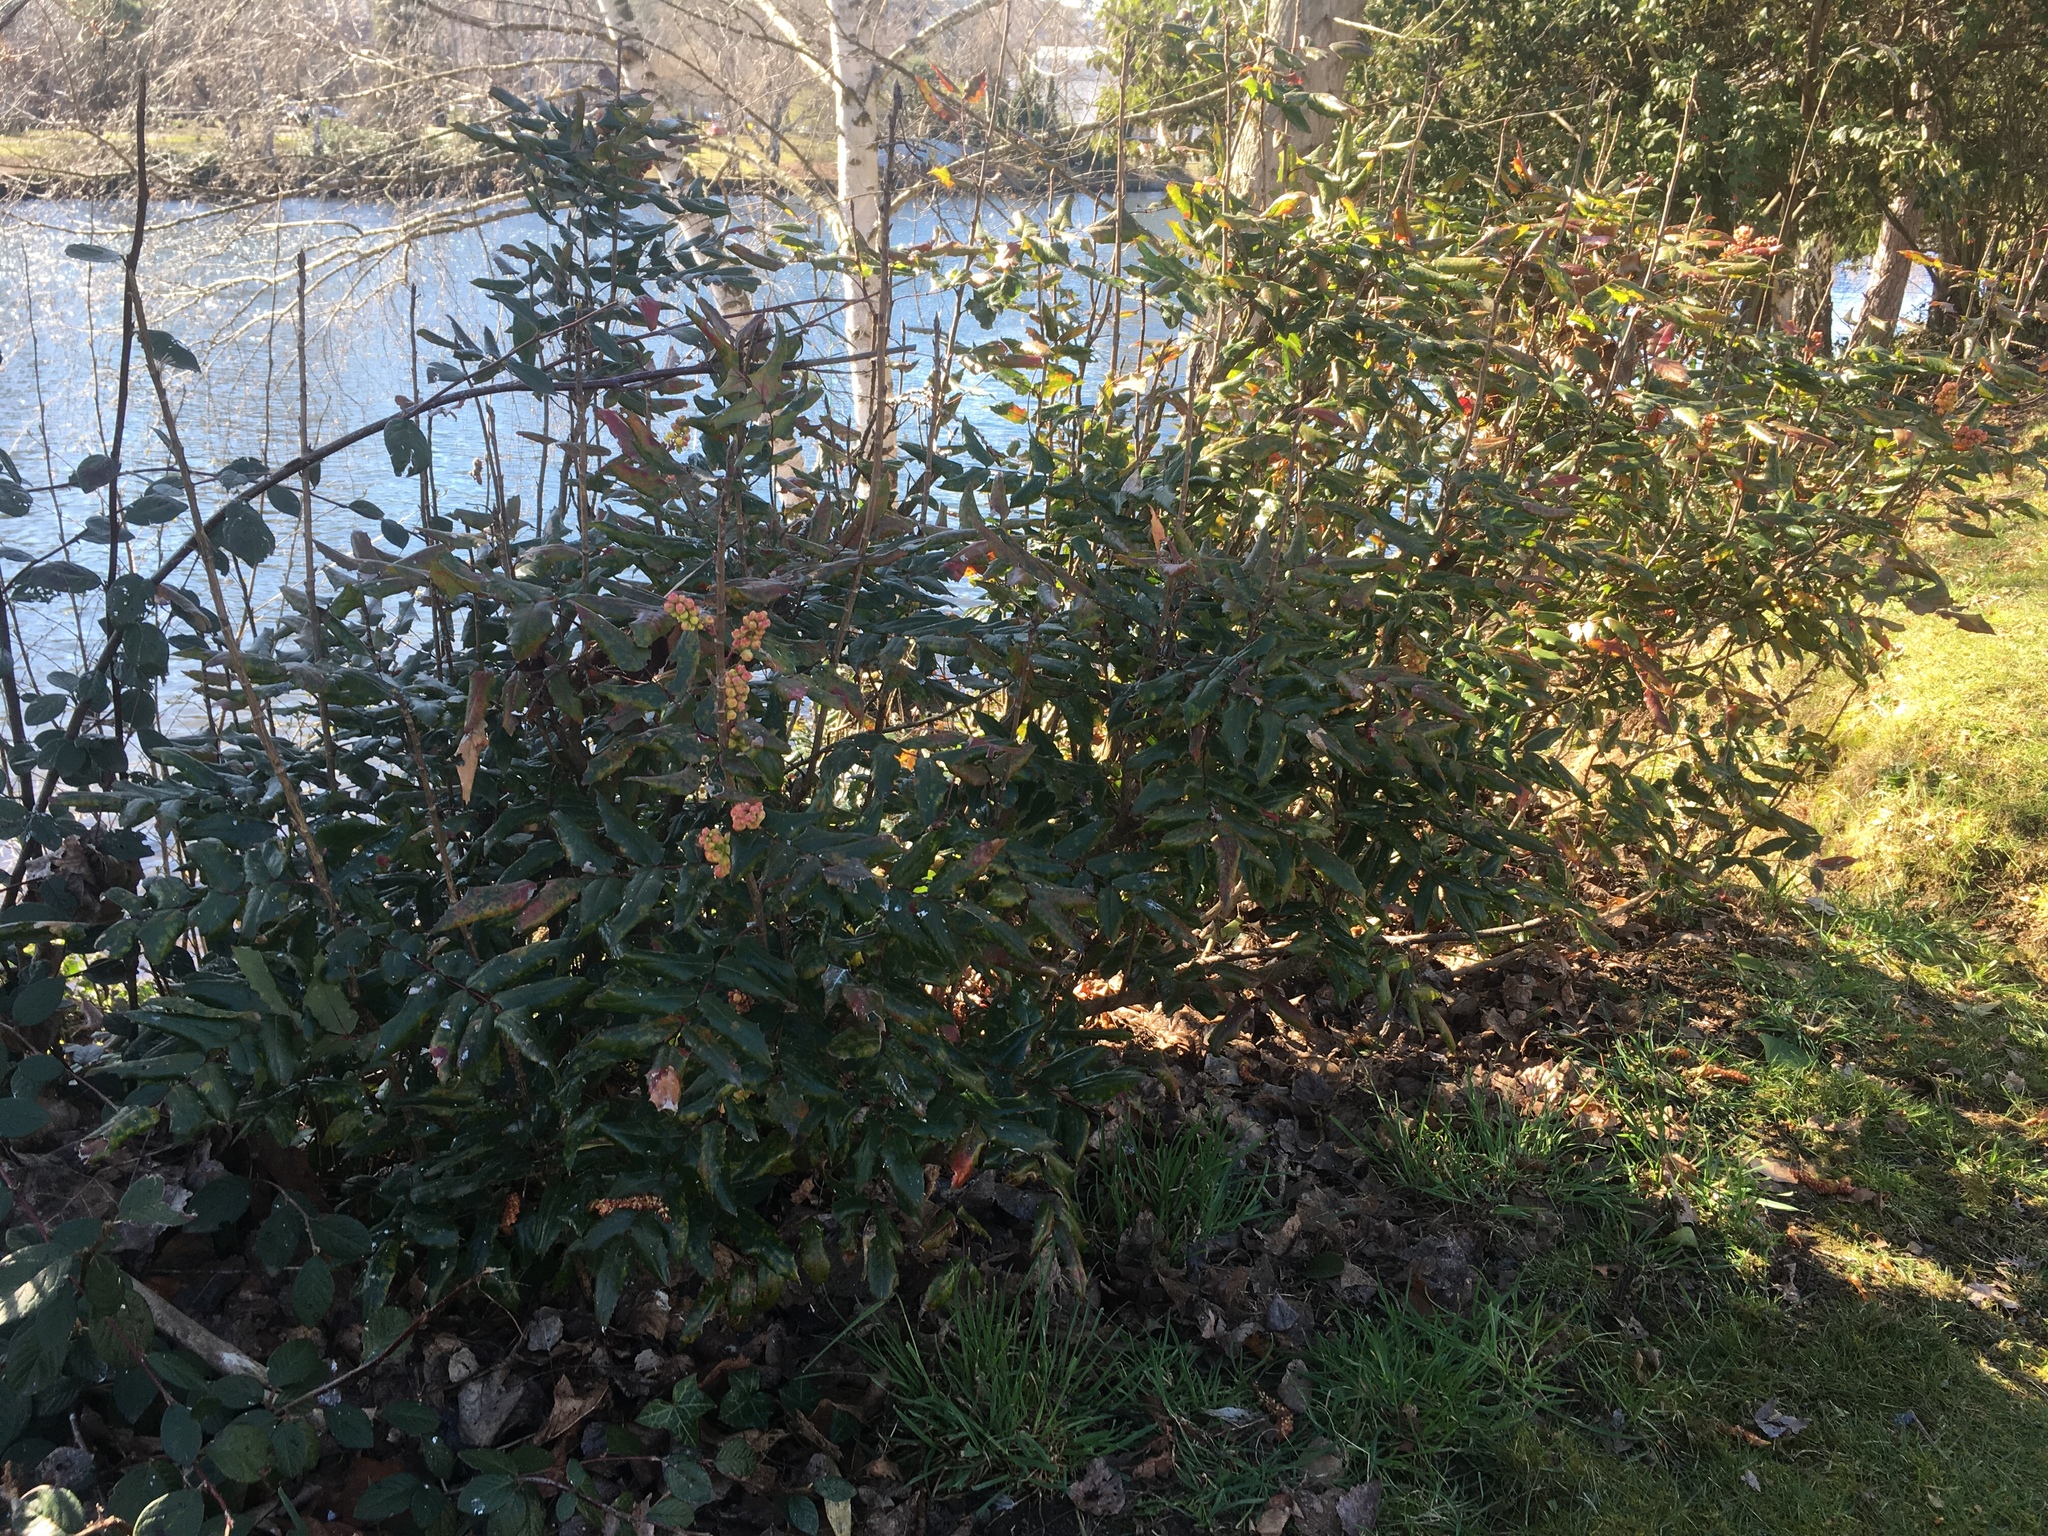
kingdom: Plantae
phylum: Tracheophyta
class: Magnoliopsida
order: Ranunculales
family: Berberidaceae
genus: Mahonia
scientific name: Mahonia aquifolium
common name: Oregon-grape
